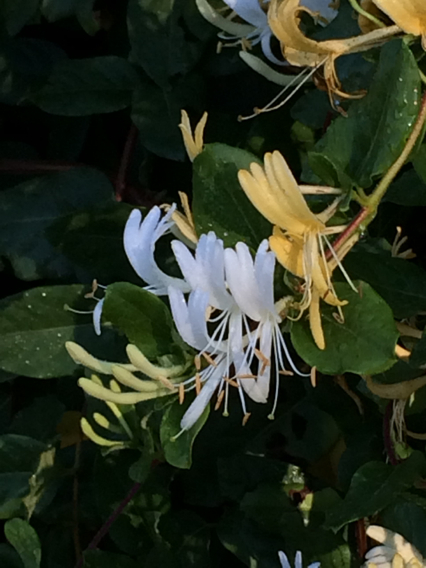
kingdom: Plantae
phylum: Tracheophyta
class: Magnoliopsida
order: Dipsacales
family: Caprifoliaceae
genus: Lonicera
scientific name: Lonicera japonica
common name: Japanese honeysuckle
